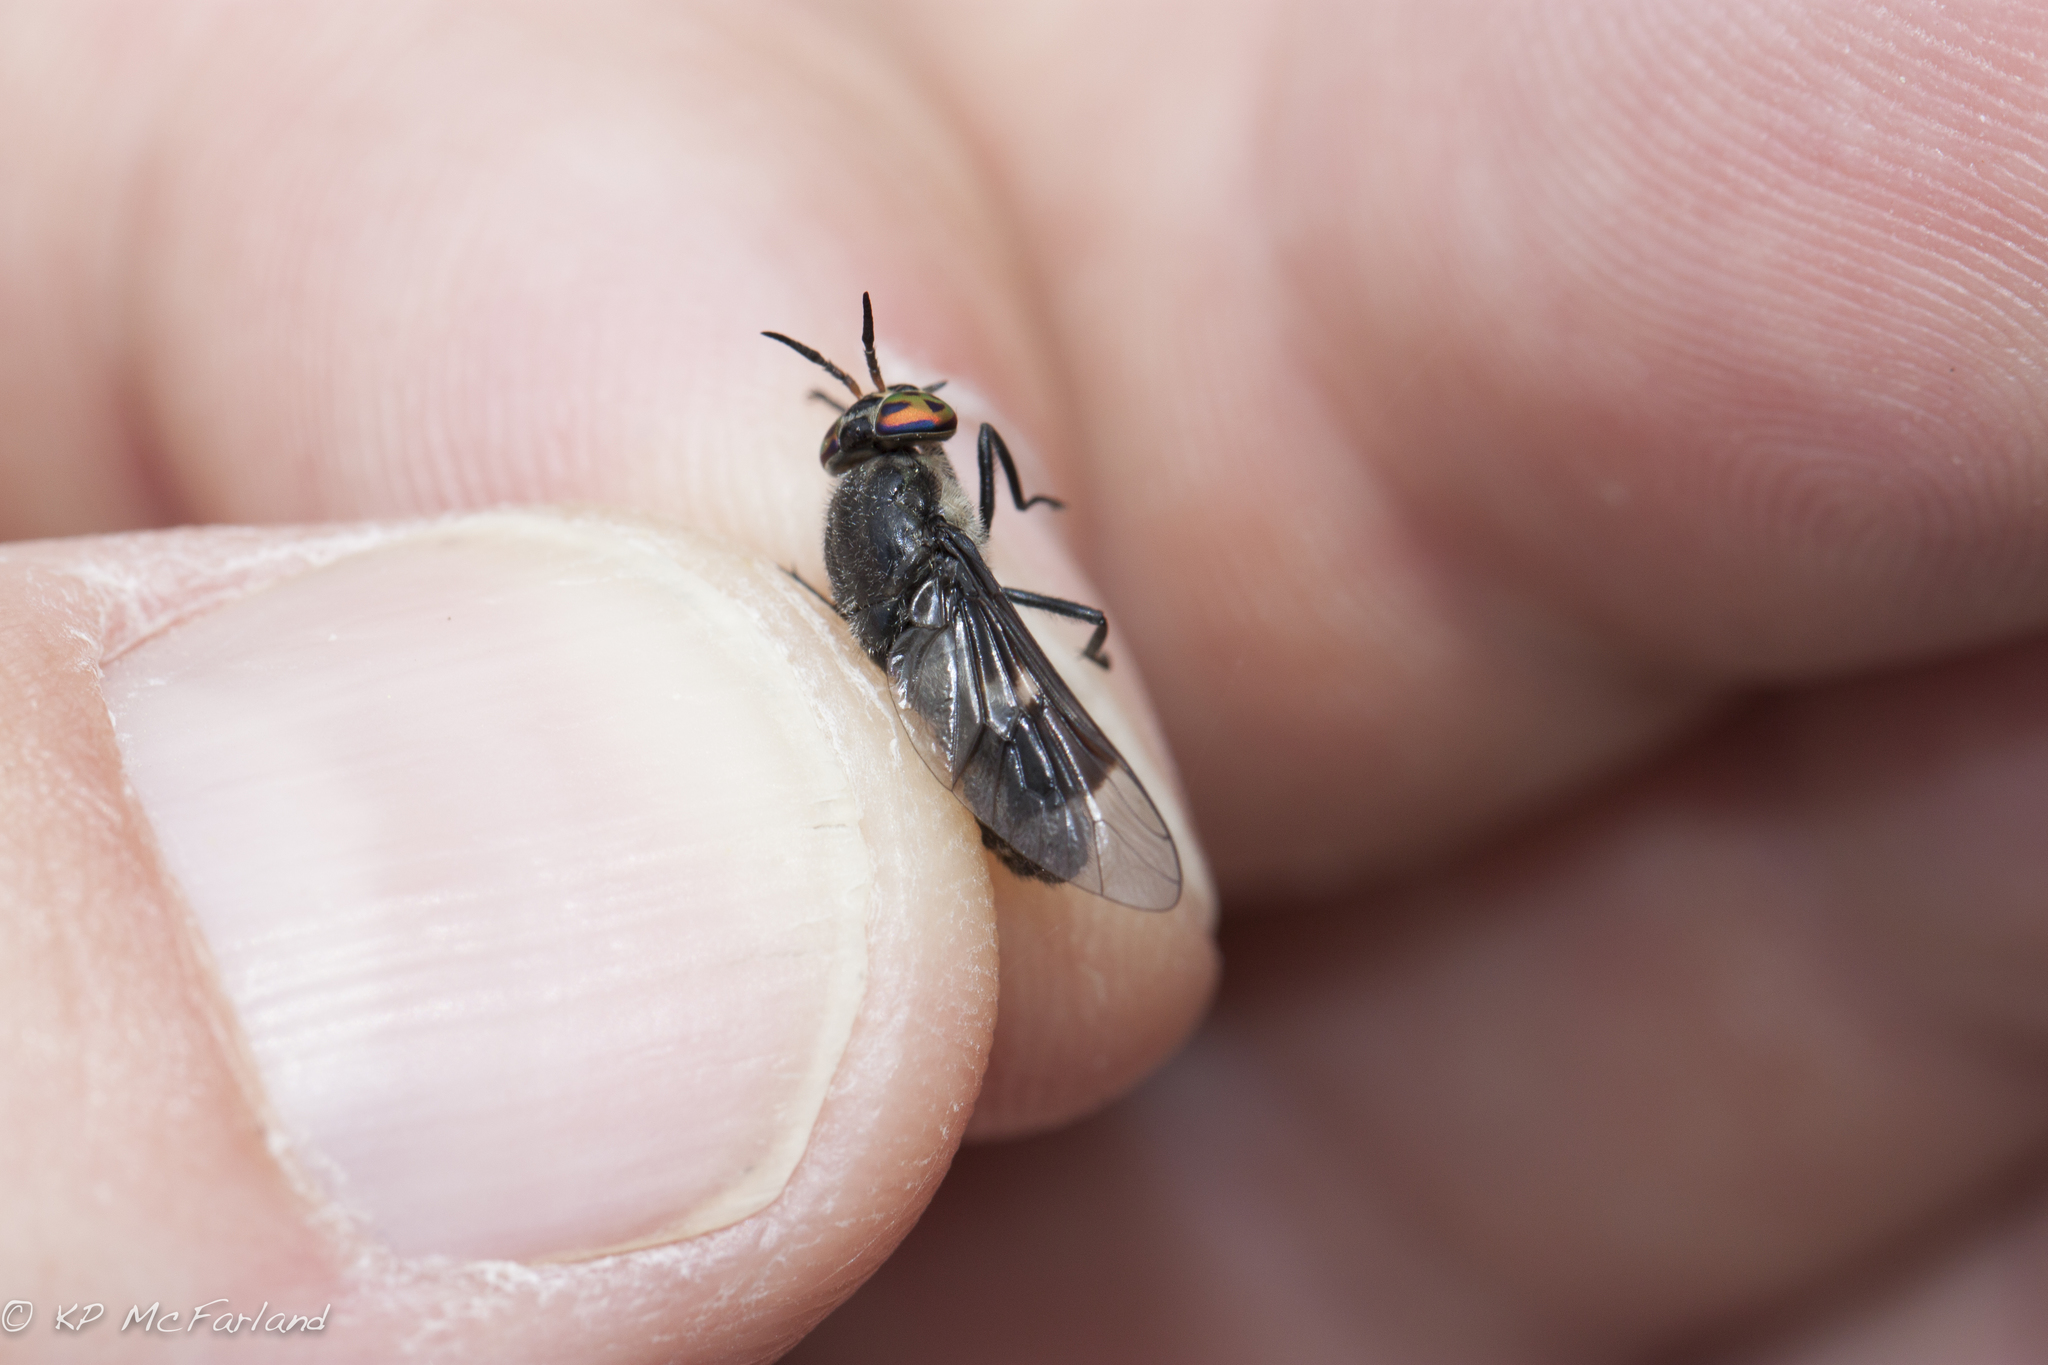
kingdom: Animalia
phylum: Arthropoda
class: Insecta
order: Diptera
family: Tabanidae
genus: Chrysops
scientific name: Chrysops carbonarius
